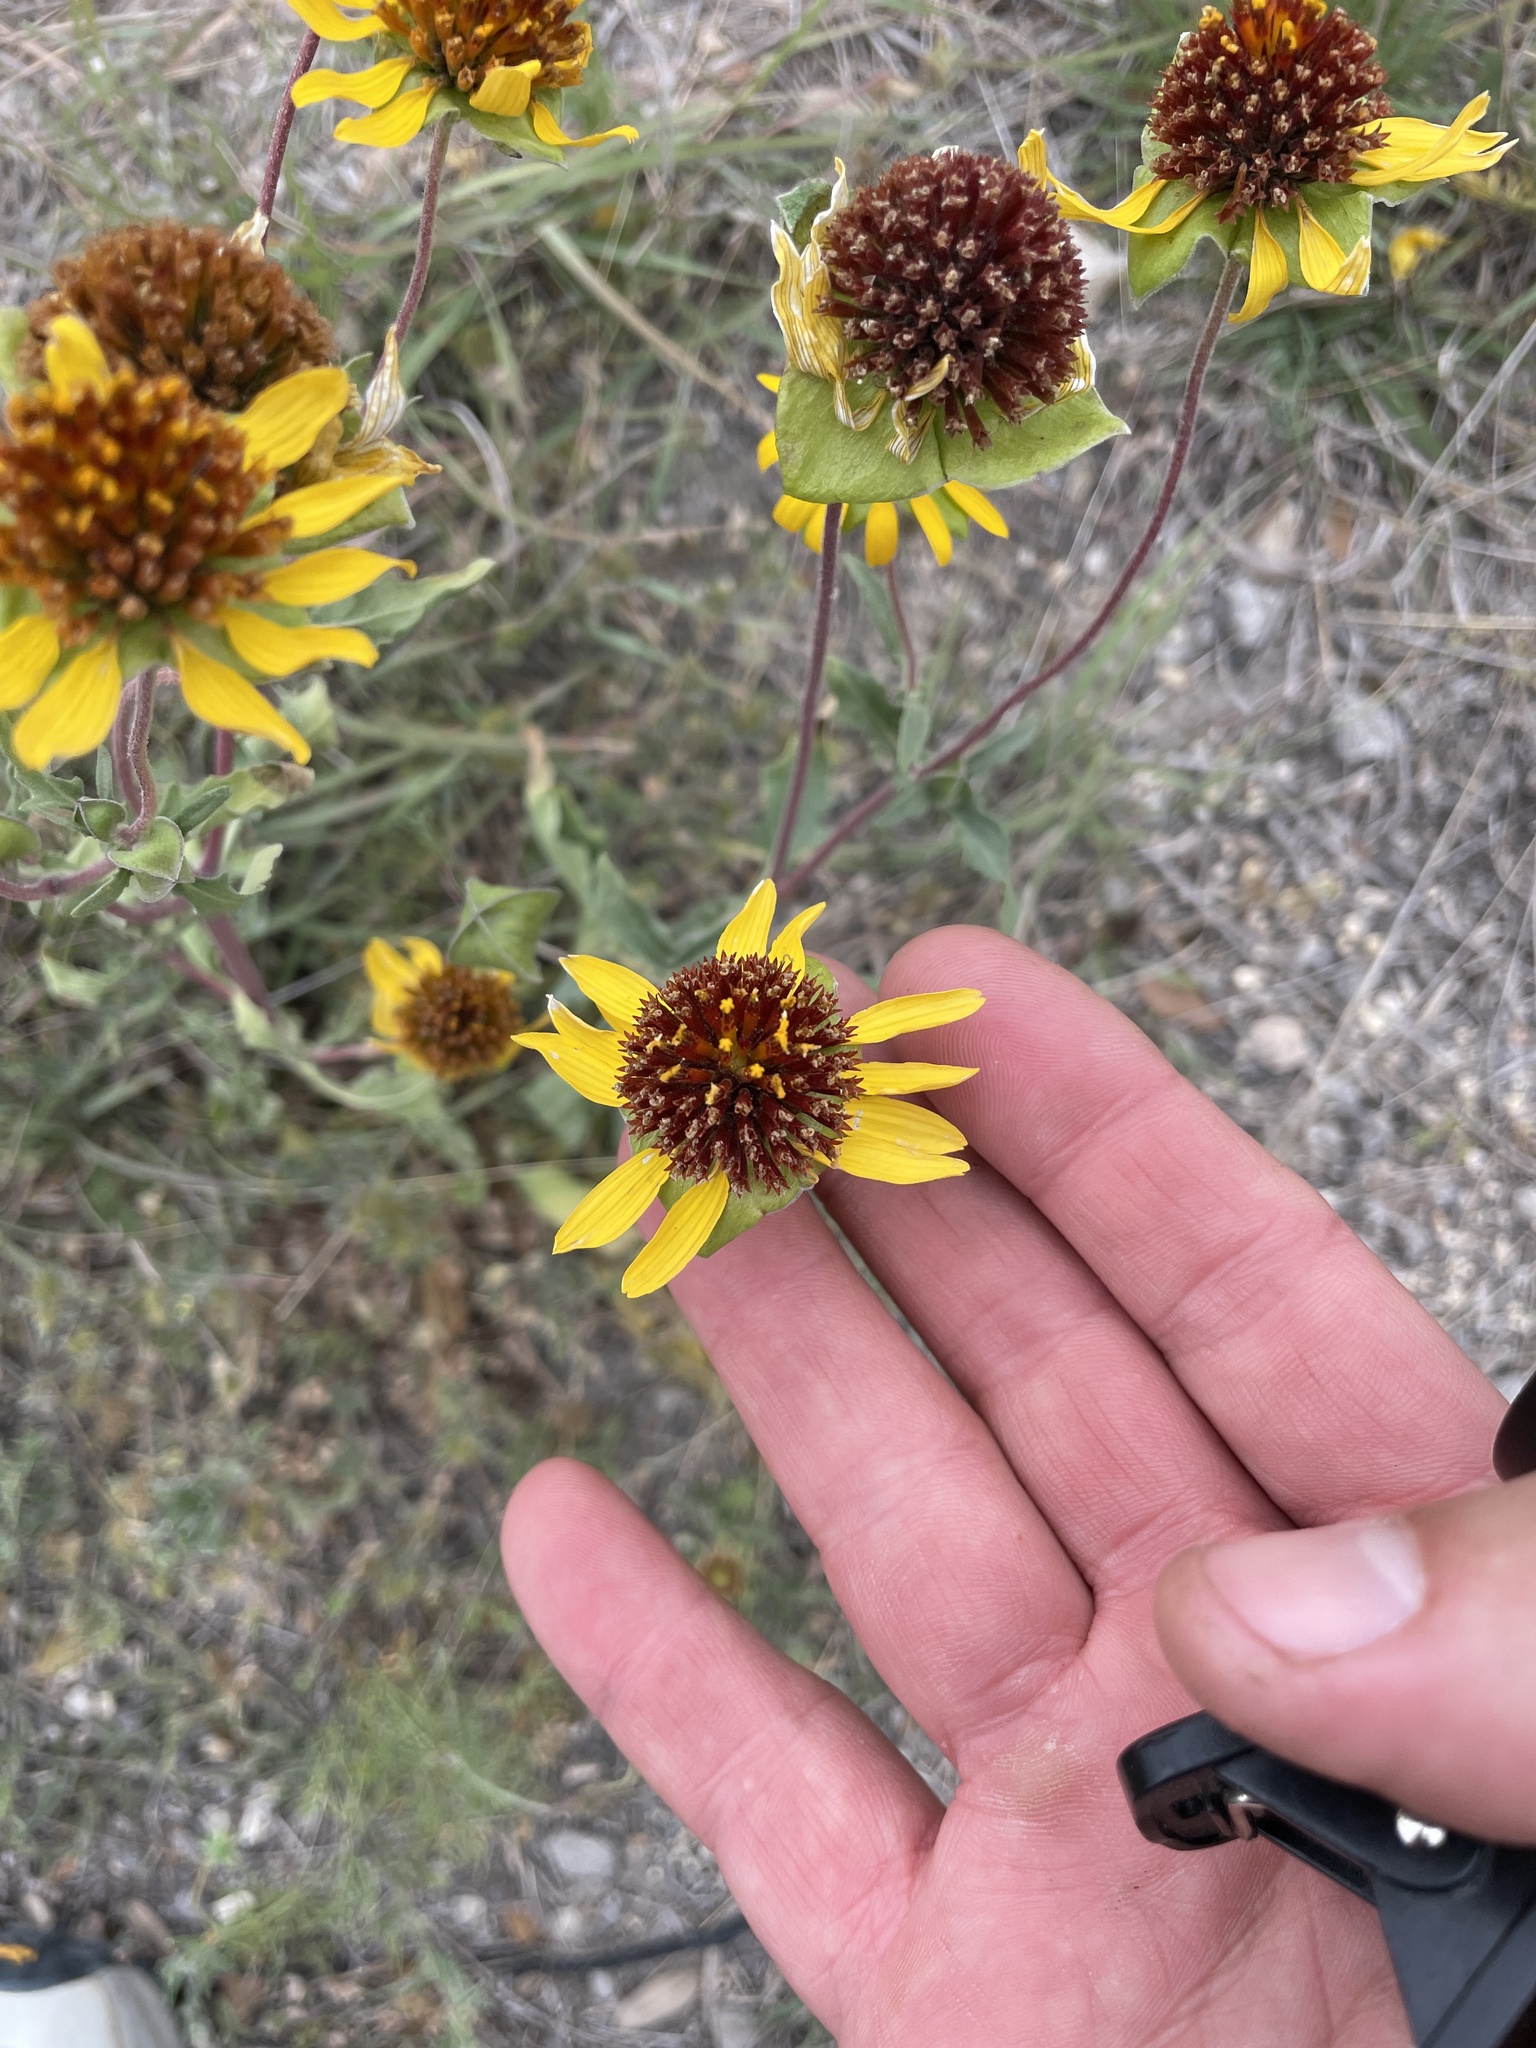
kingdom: Plantae
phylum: Tracheophyta
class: Magnoliopsida
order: Asterales
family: Asteraceae
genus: Tetragonotheca
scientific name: Tetragonotheca texana
